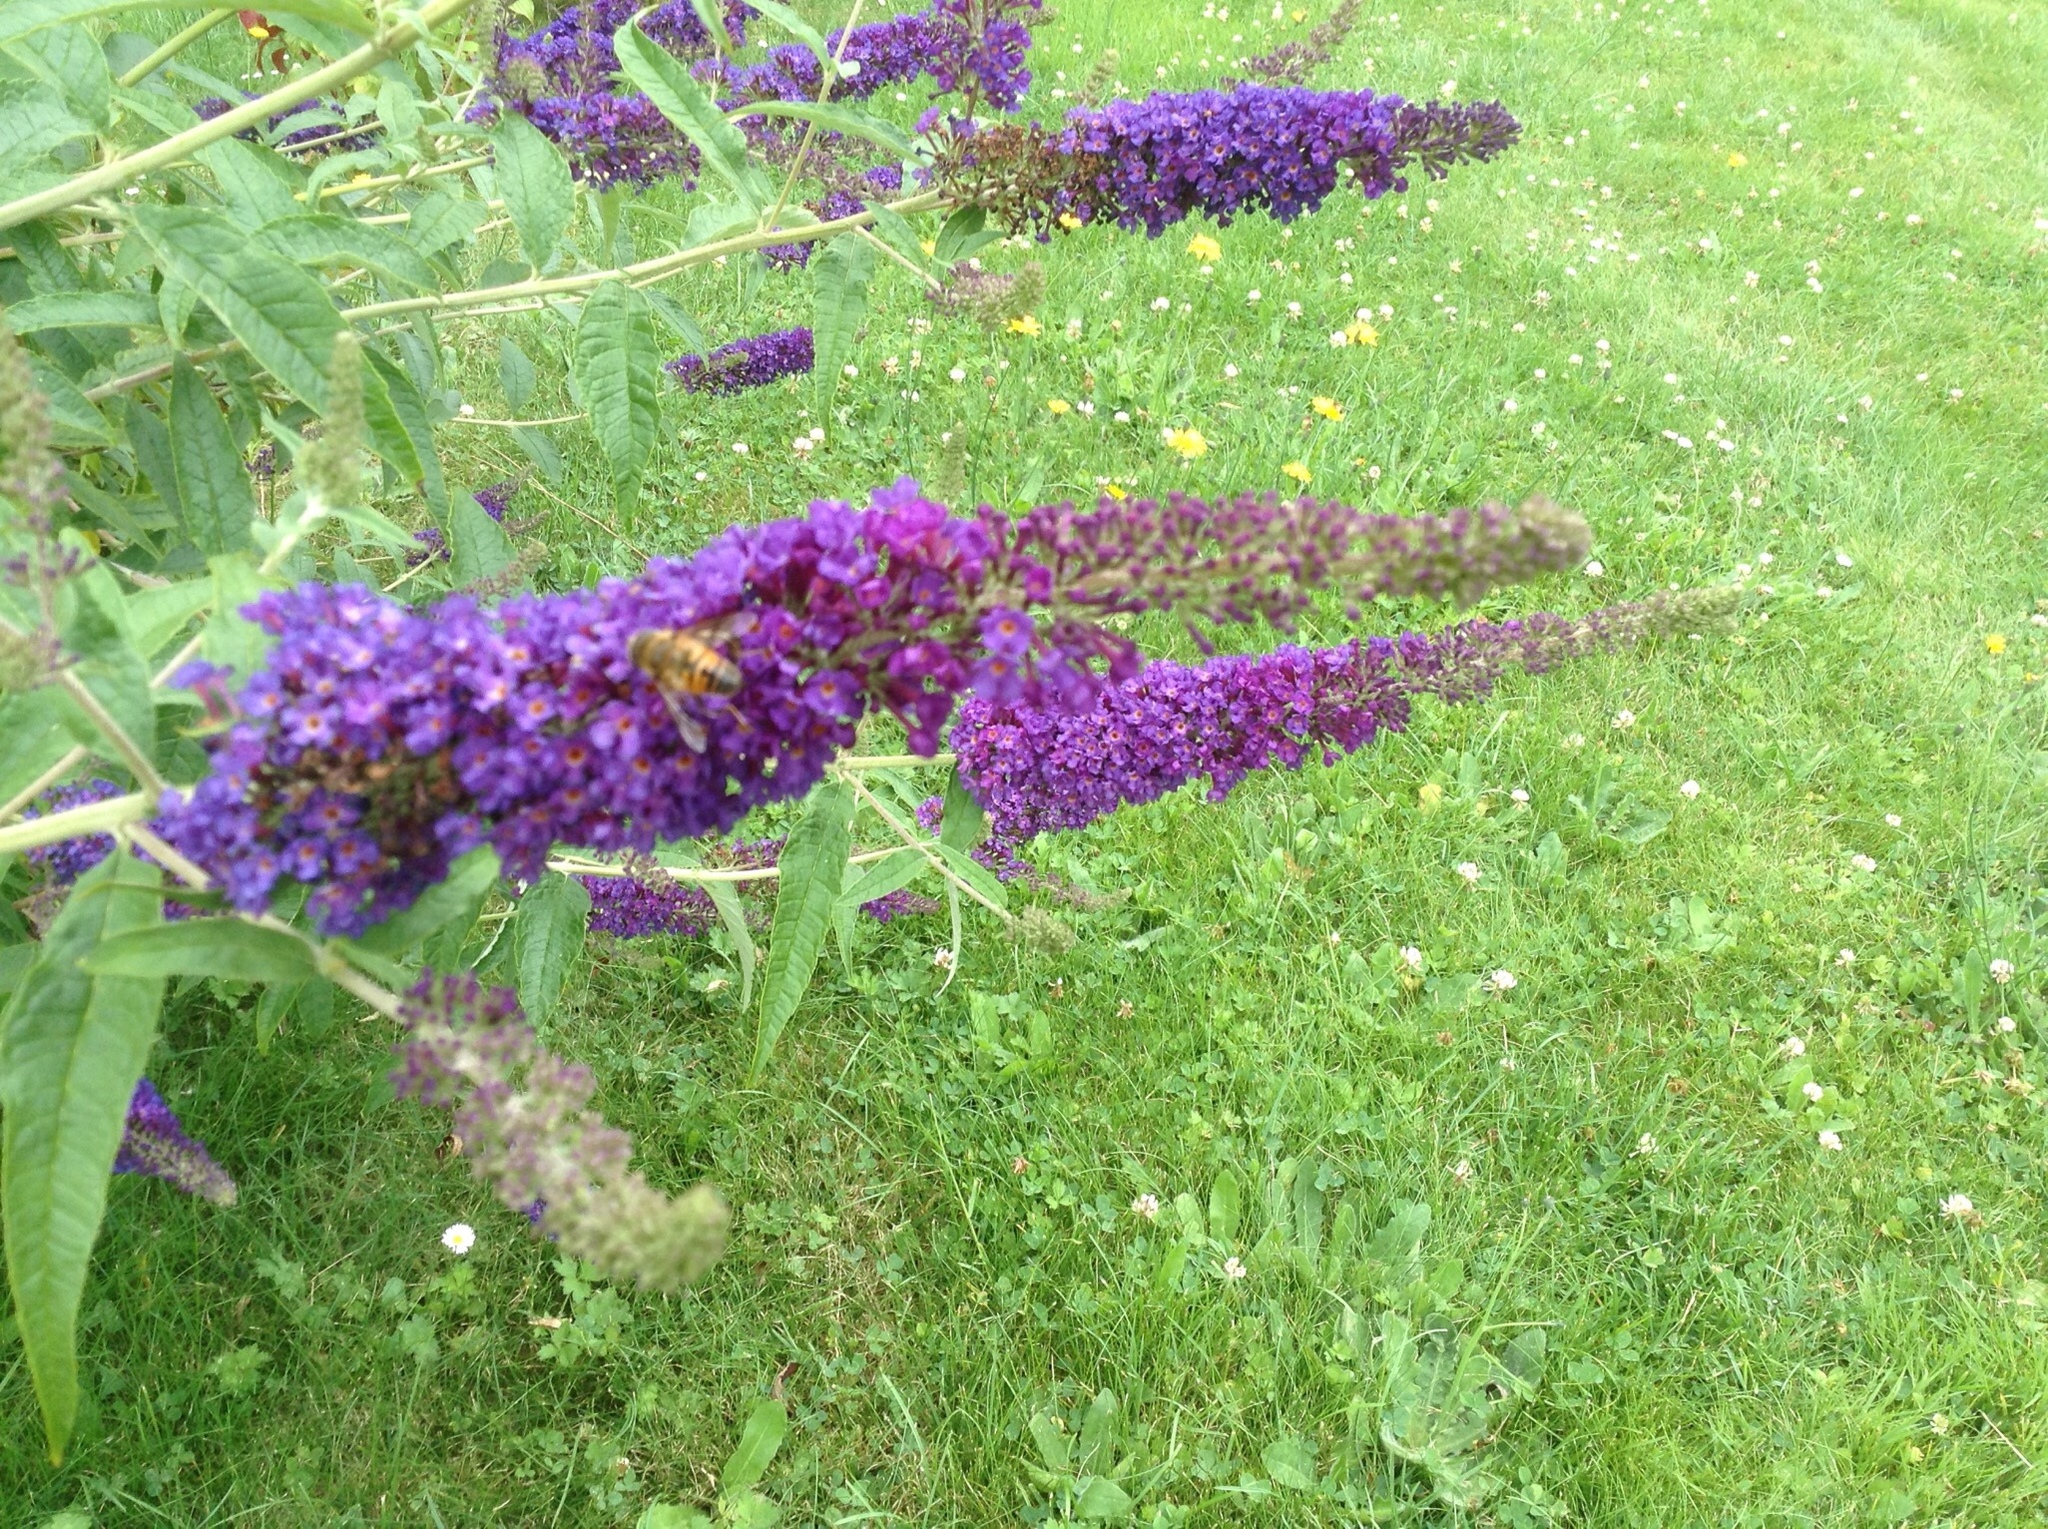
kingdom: Plantae
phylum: Tracheophyta
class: Magnoliopsida
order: Lamiales
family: Scrophulariaceae
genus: Buddleja
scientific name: Buddleja davidii
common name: Butterfly-bush
